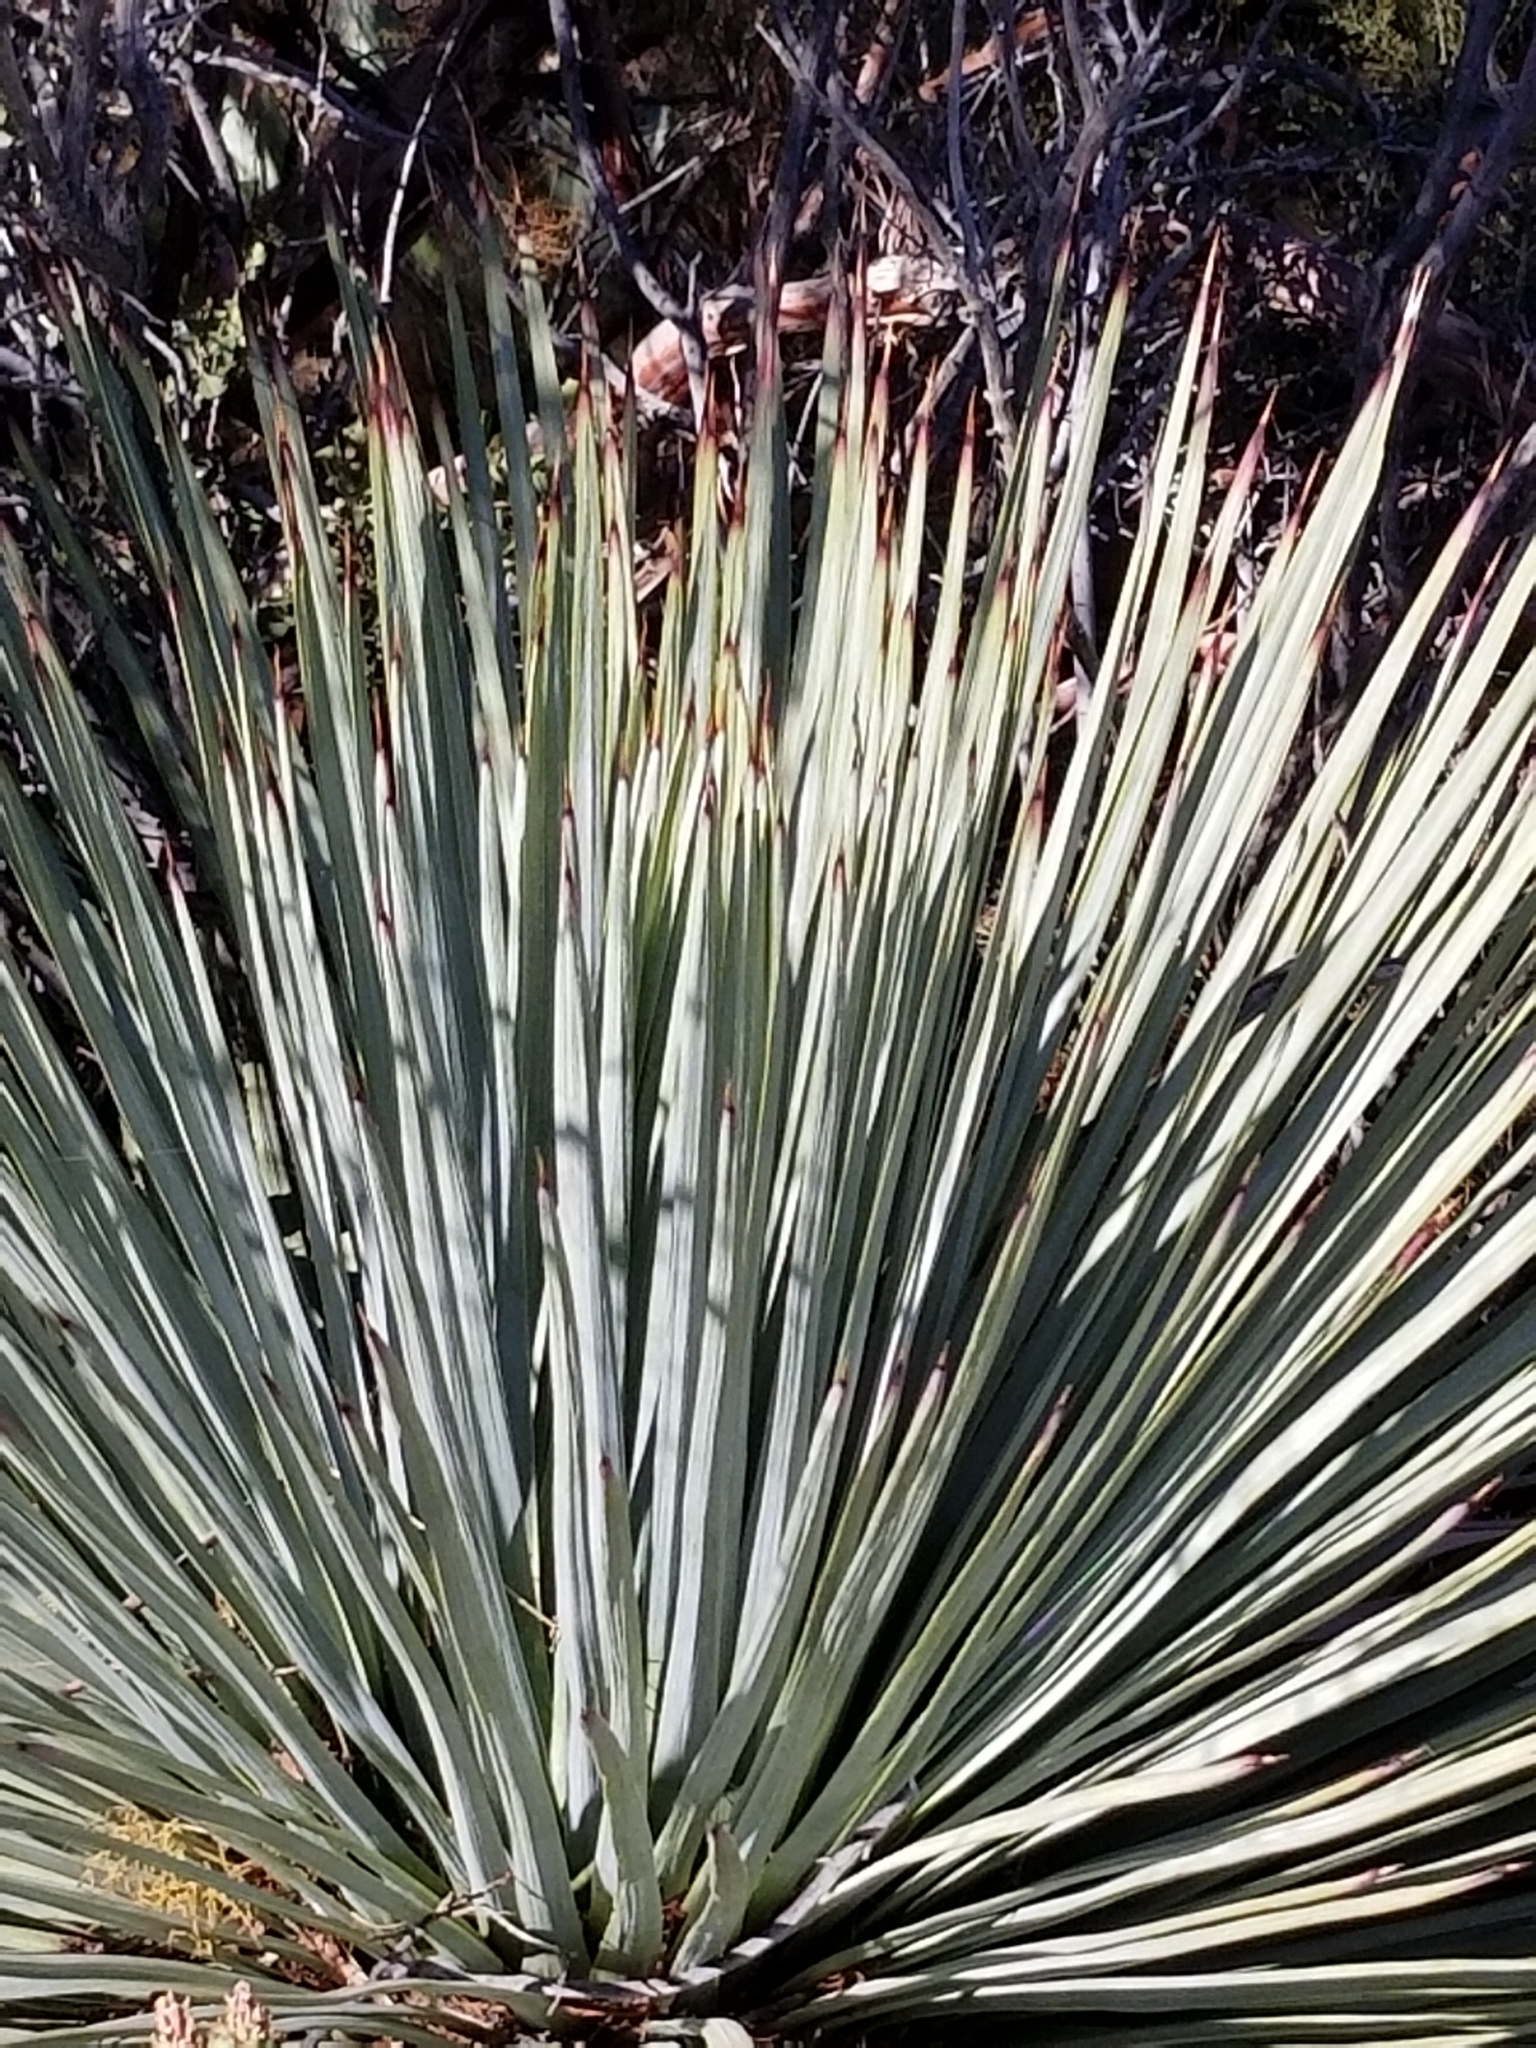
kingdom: Plantae
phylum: Tracheophyta
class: Liliopsida
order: Asparagales
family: Asparagaceae
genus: Hesperoyucca
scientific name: Hesperoyucca whipplei
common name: Our lord's-candle
